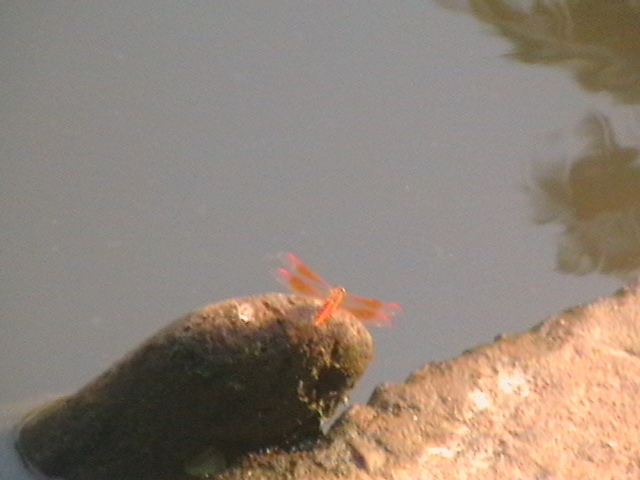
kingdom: Animalia
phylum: Arthropoda
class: Insecta
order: Odonata
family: Libellulidae
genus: Brachythemis
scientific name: Brachythemis contaminata
